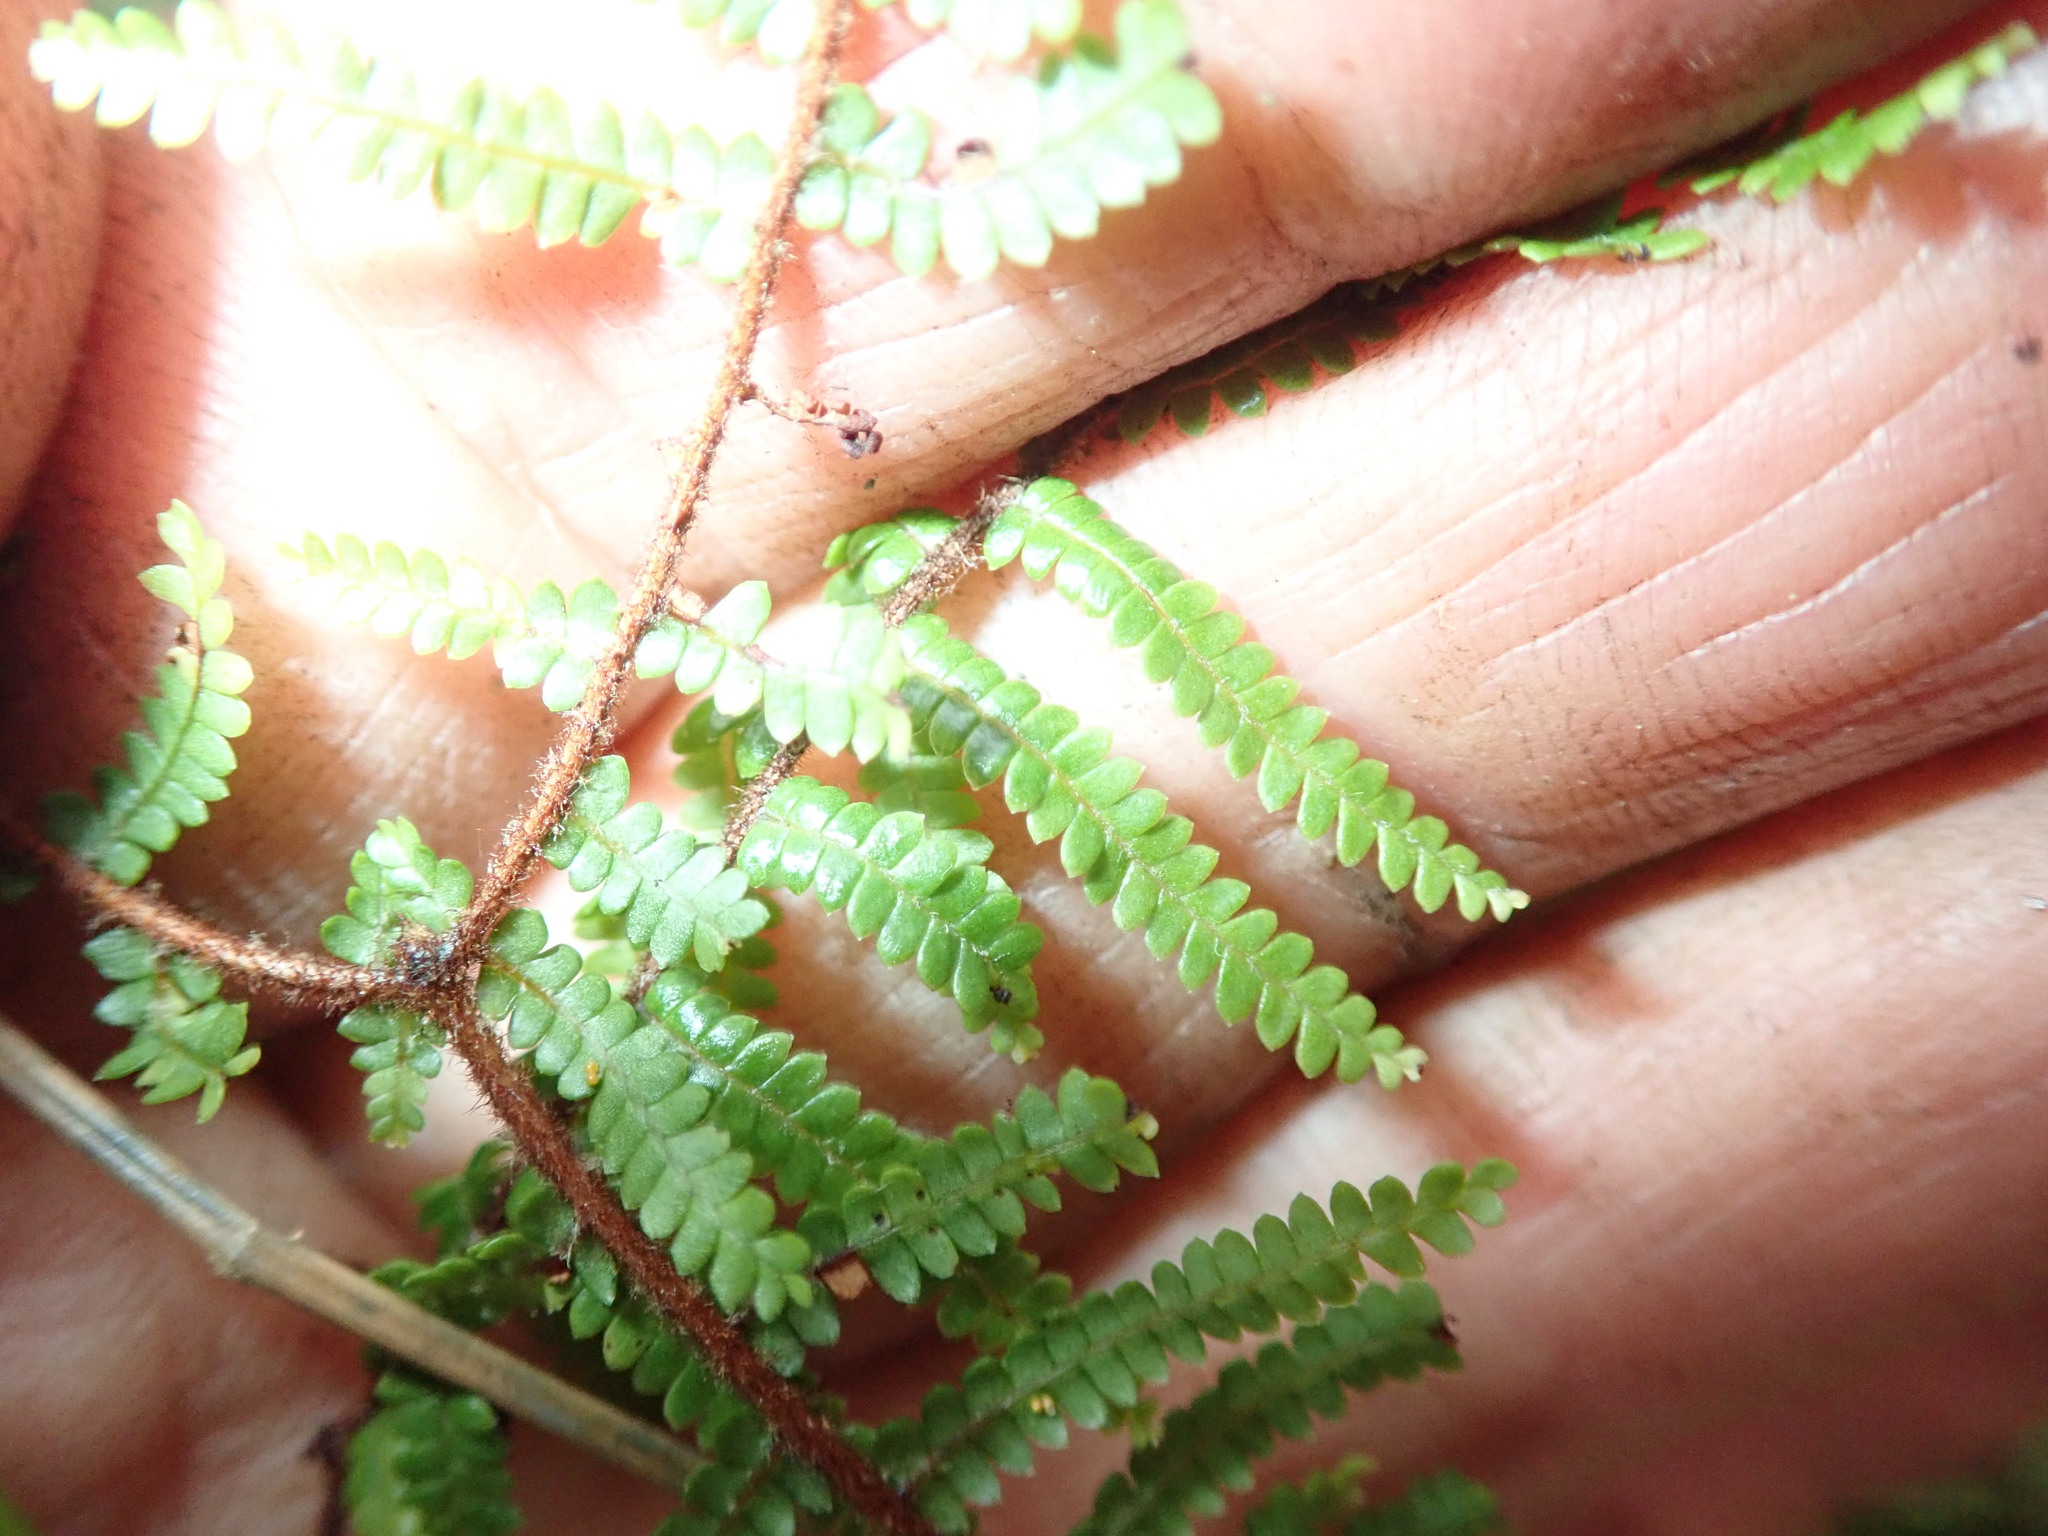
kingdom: Plantae
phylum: Tracheophyta
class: Polypodiopsida
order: Gleicheniales
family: Gleicheniaceae
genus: Gleichenia
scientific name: Gleichenia microphylla
